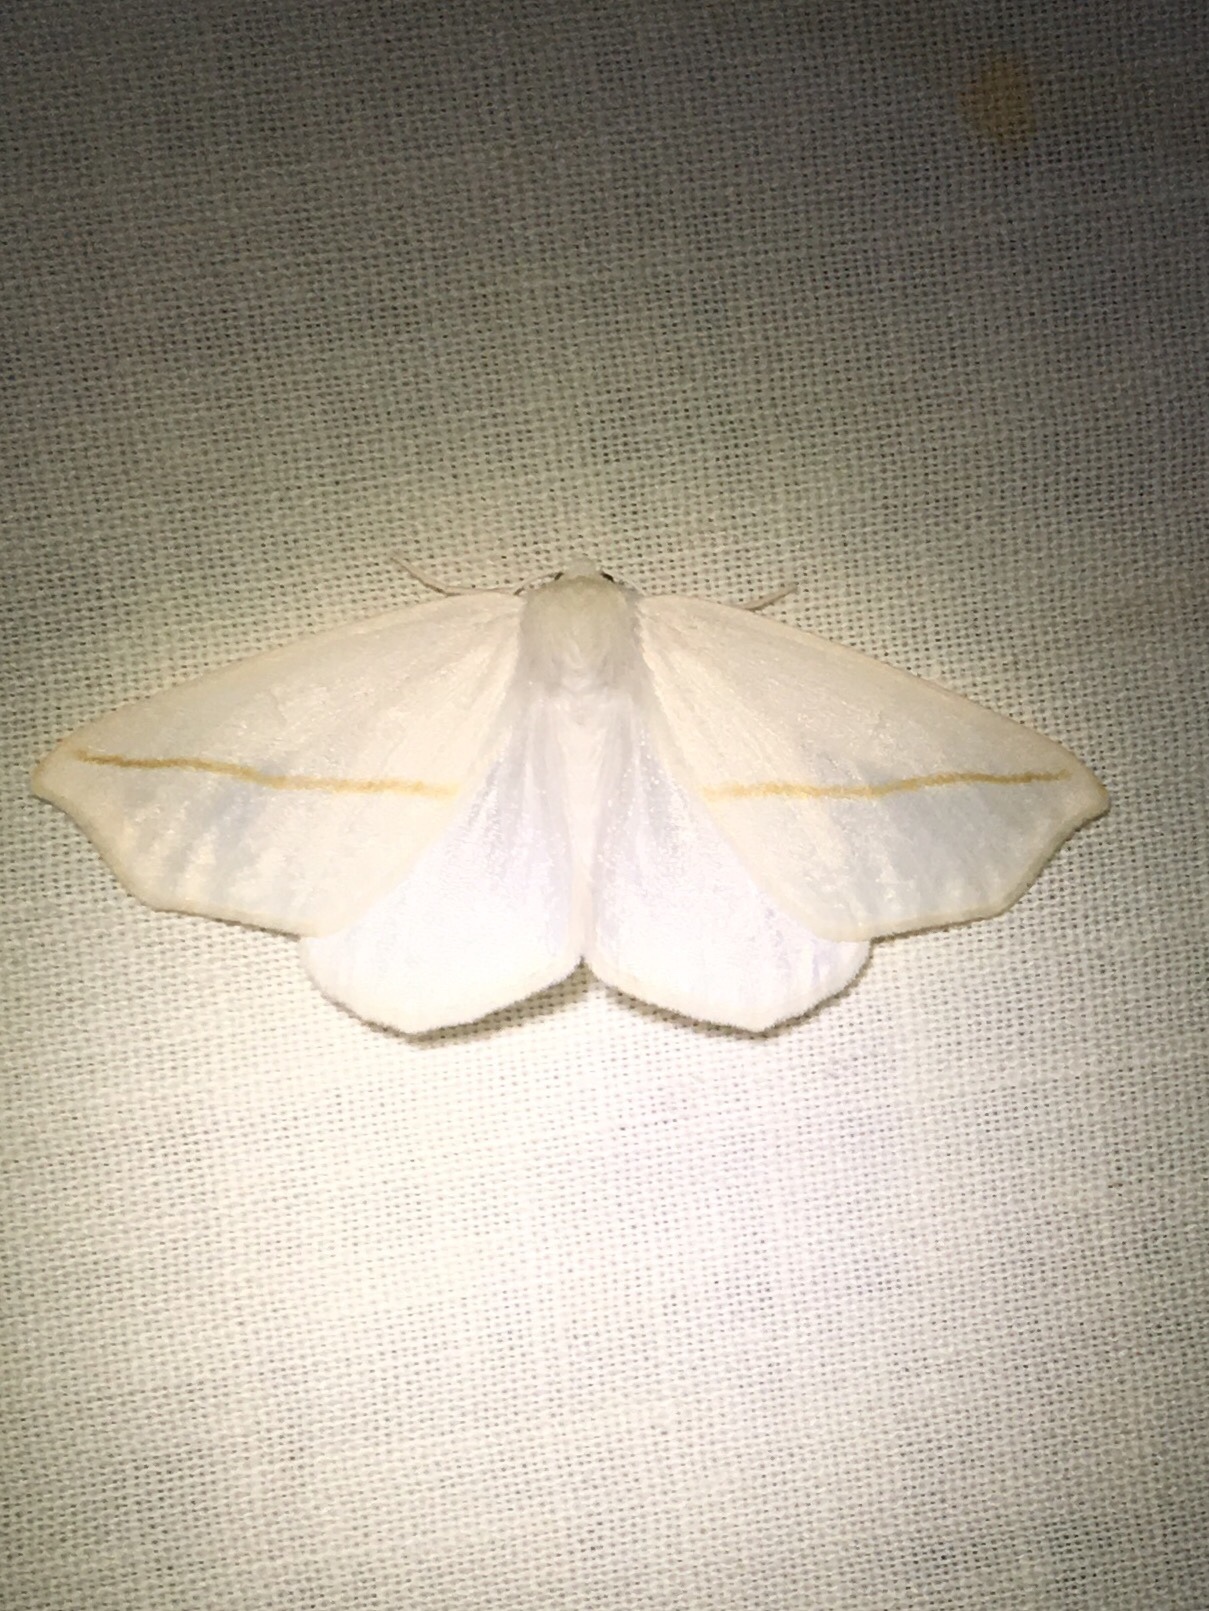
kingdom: Animalia
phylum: Arthropoda
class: Insecta
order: Lepidoptera
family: Geometridae
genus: Tetracis
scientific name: Tetracis cachexiata
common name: White slant-line
